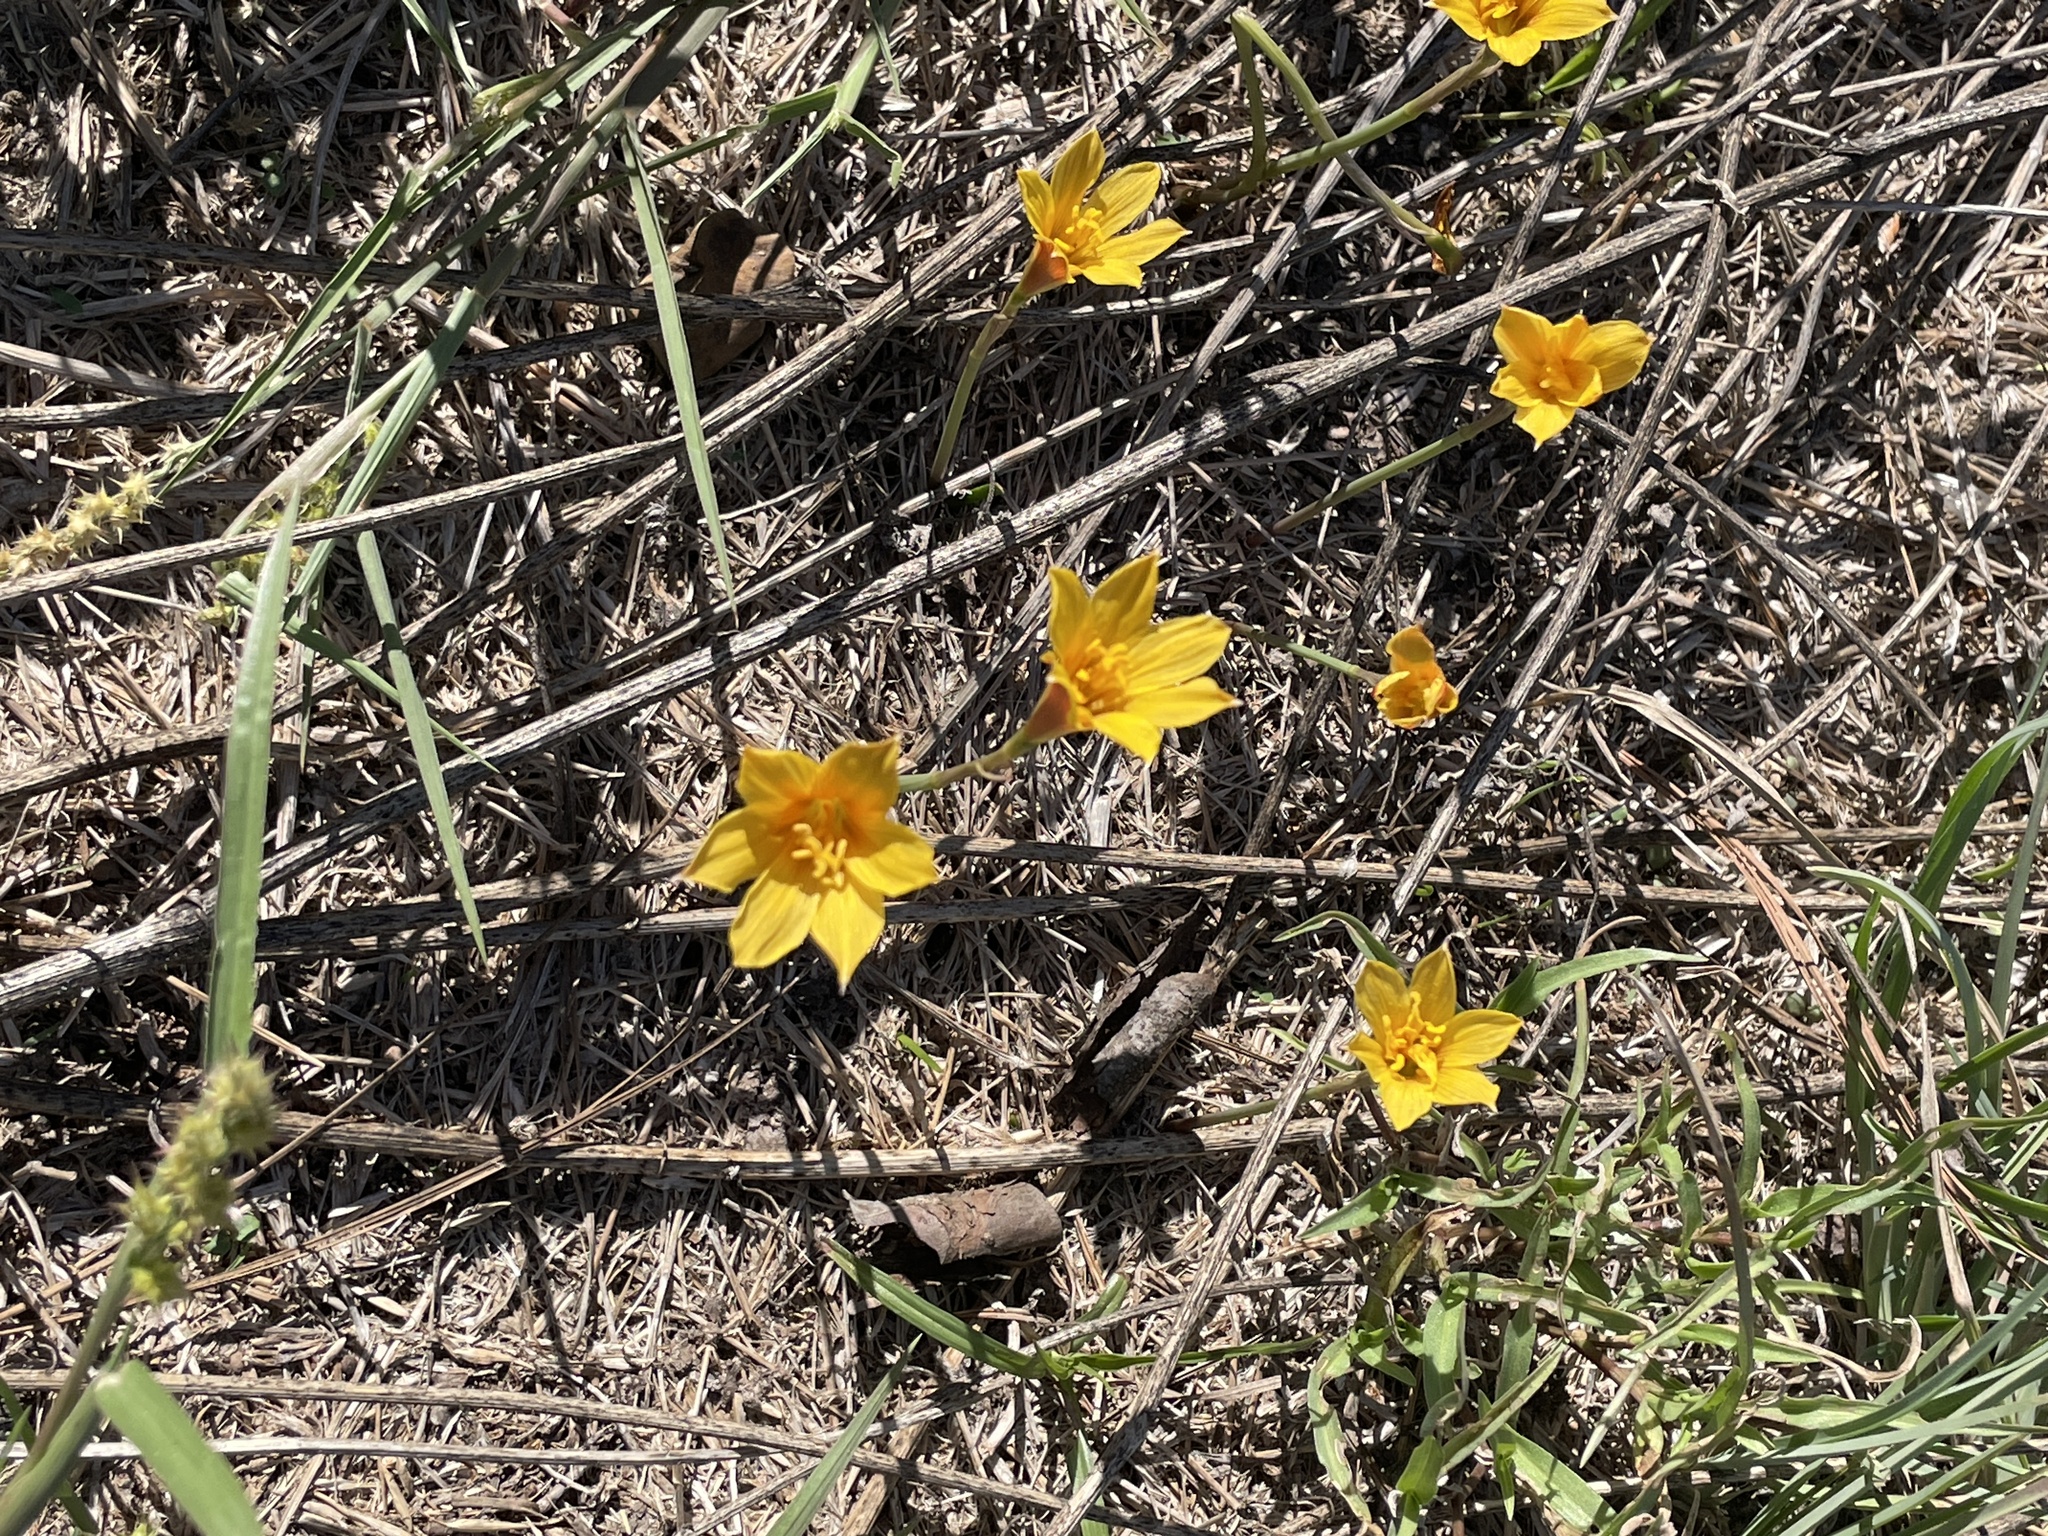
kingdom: Plantae
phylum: Tracheophyta
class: Liliopsida
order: Asparagales
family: Amaryllidaceae
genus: Zephyranthes
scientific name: Zephyranthes tubispatha
